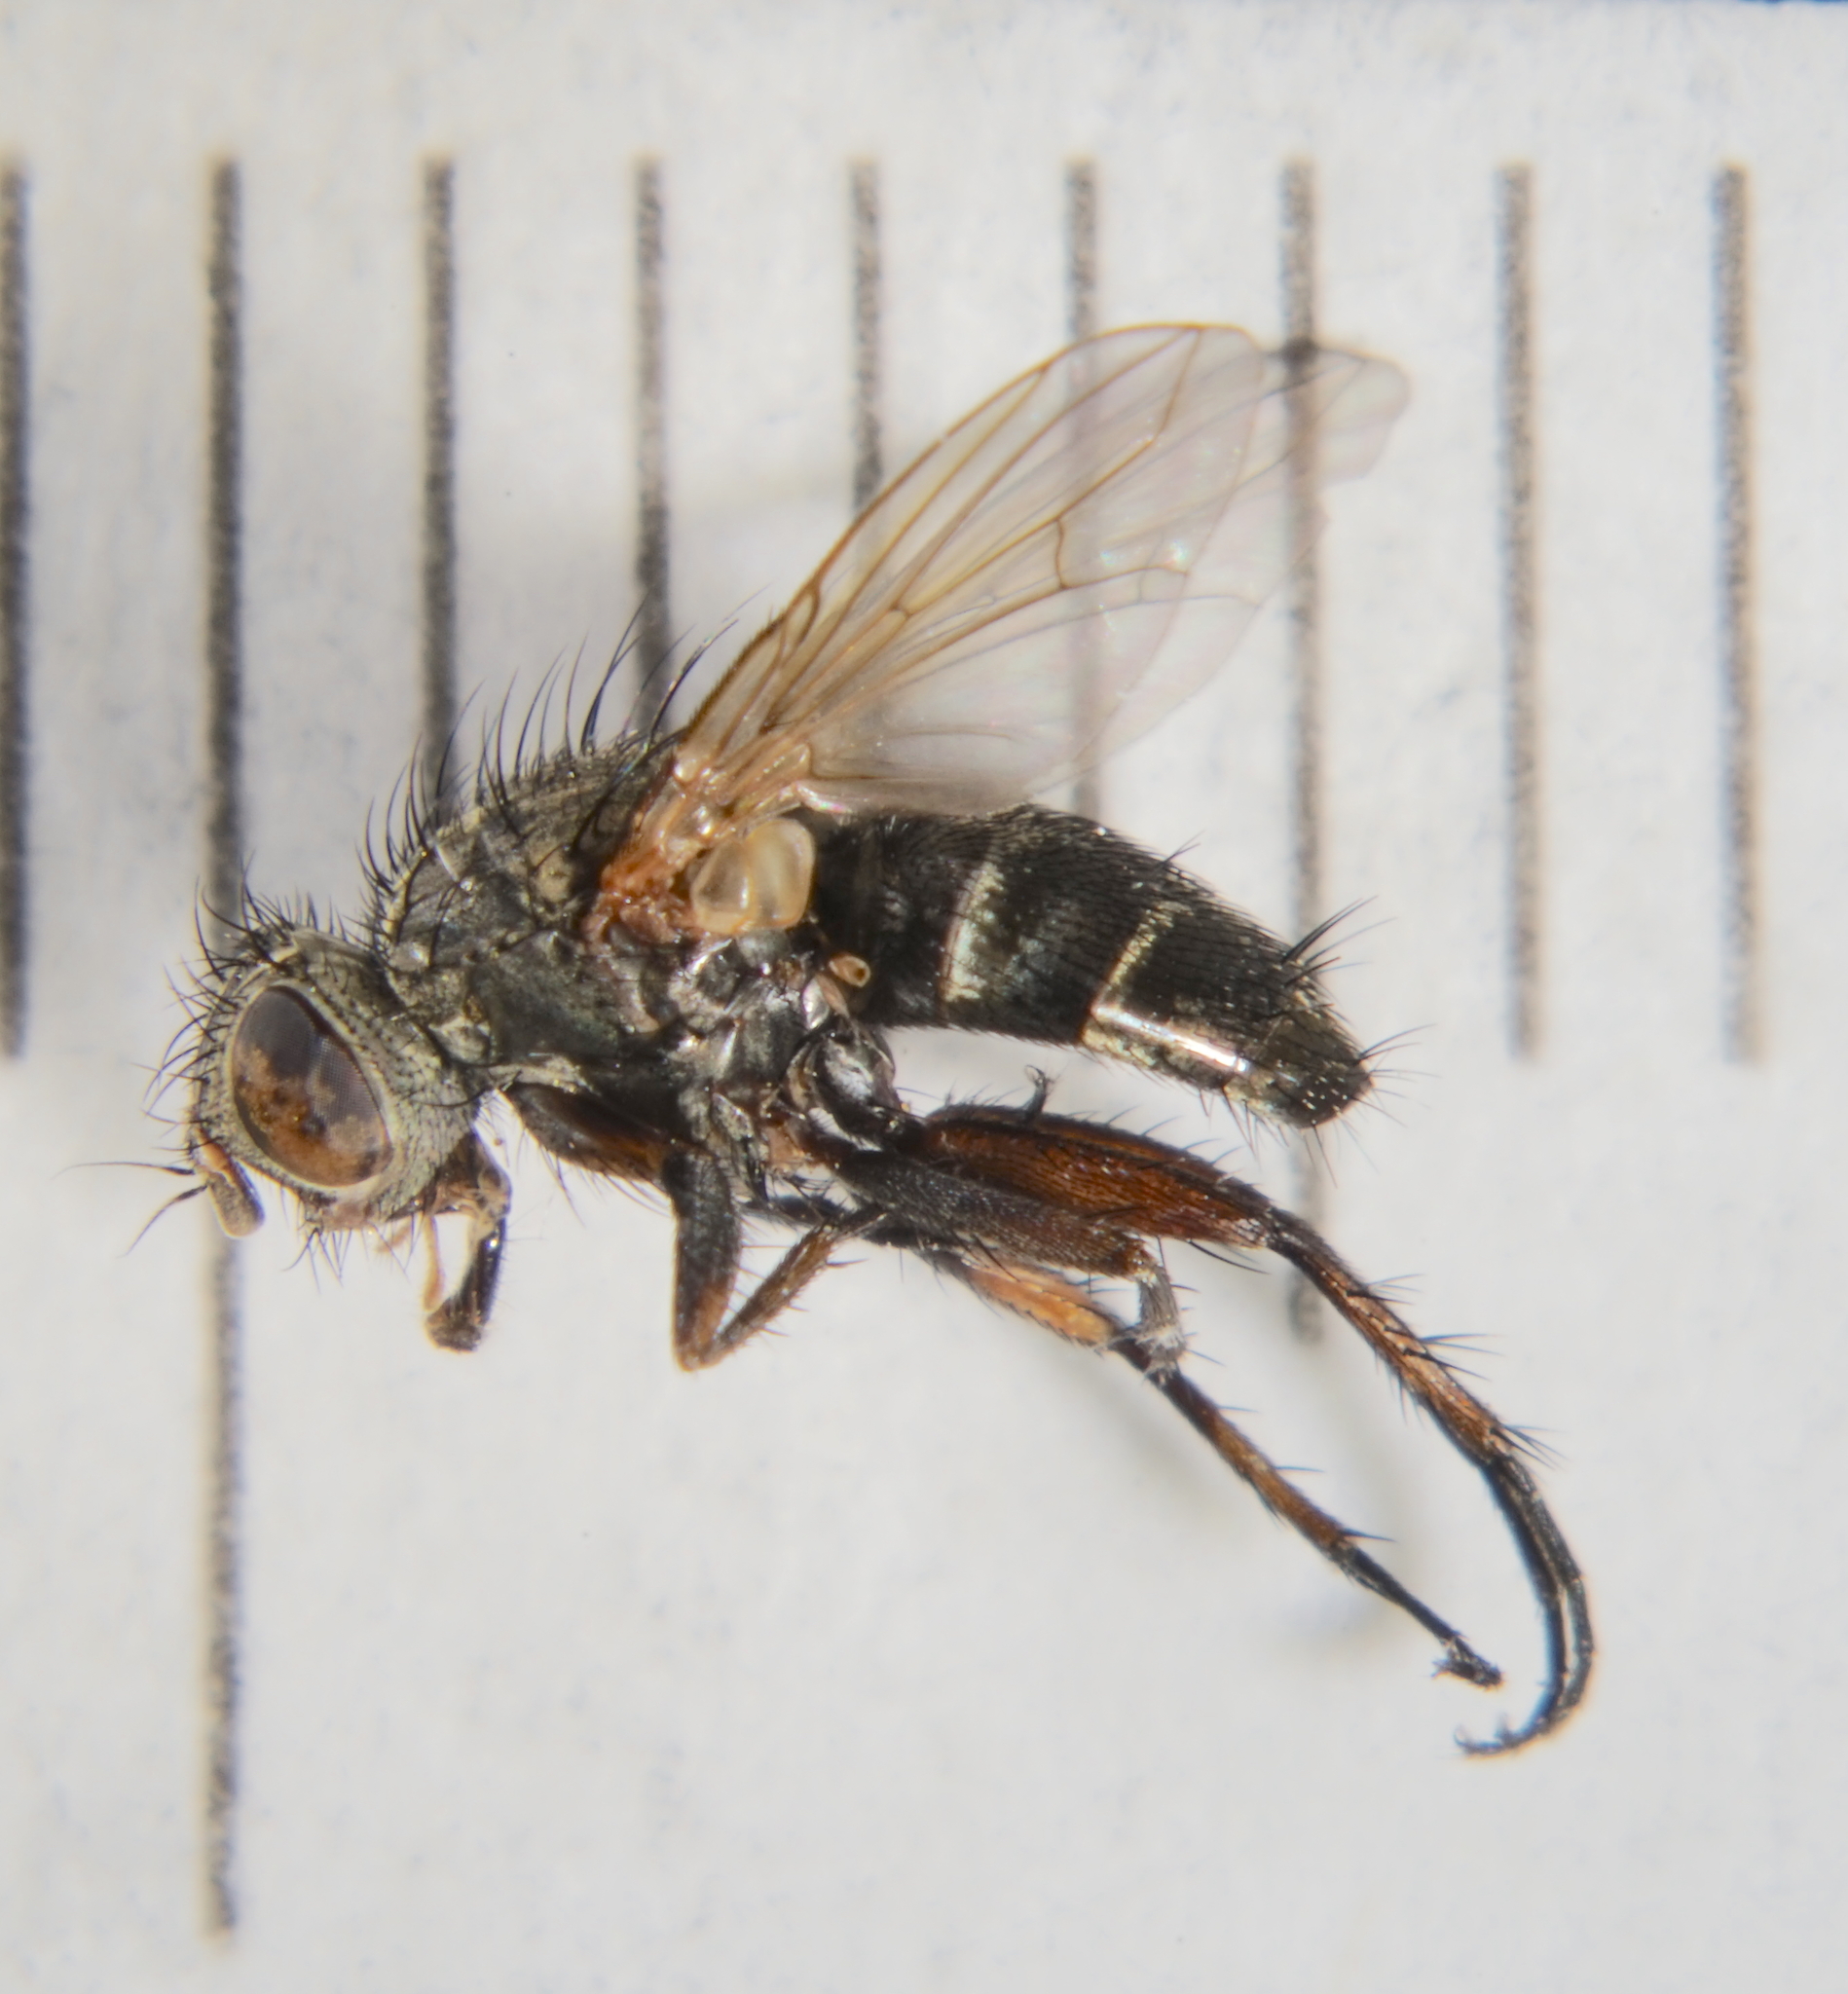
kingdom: Animalia
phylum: Arthropoda
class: Insecta
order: Diptera
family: Calliphoridae
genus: Tricogena
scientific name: Tricogena rubricosa
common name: Red-shinned woodlouse-fly
